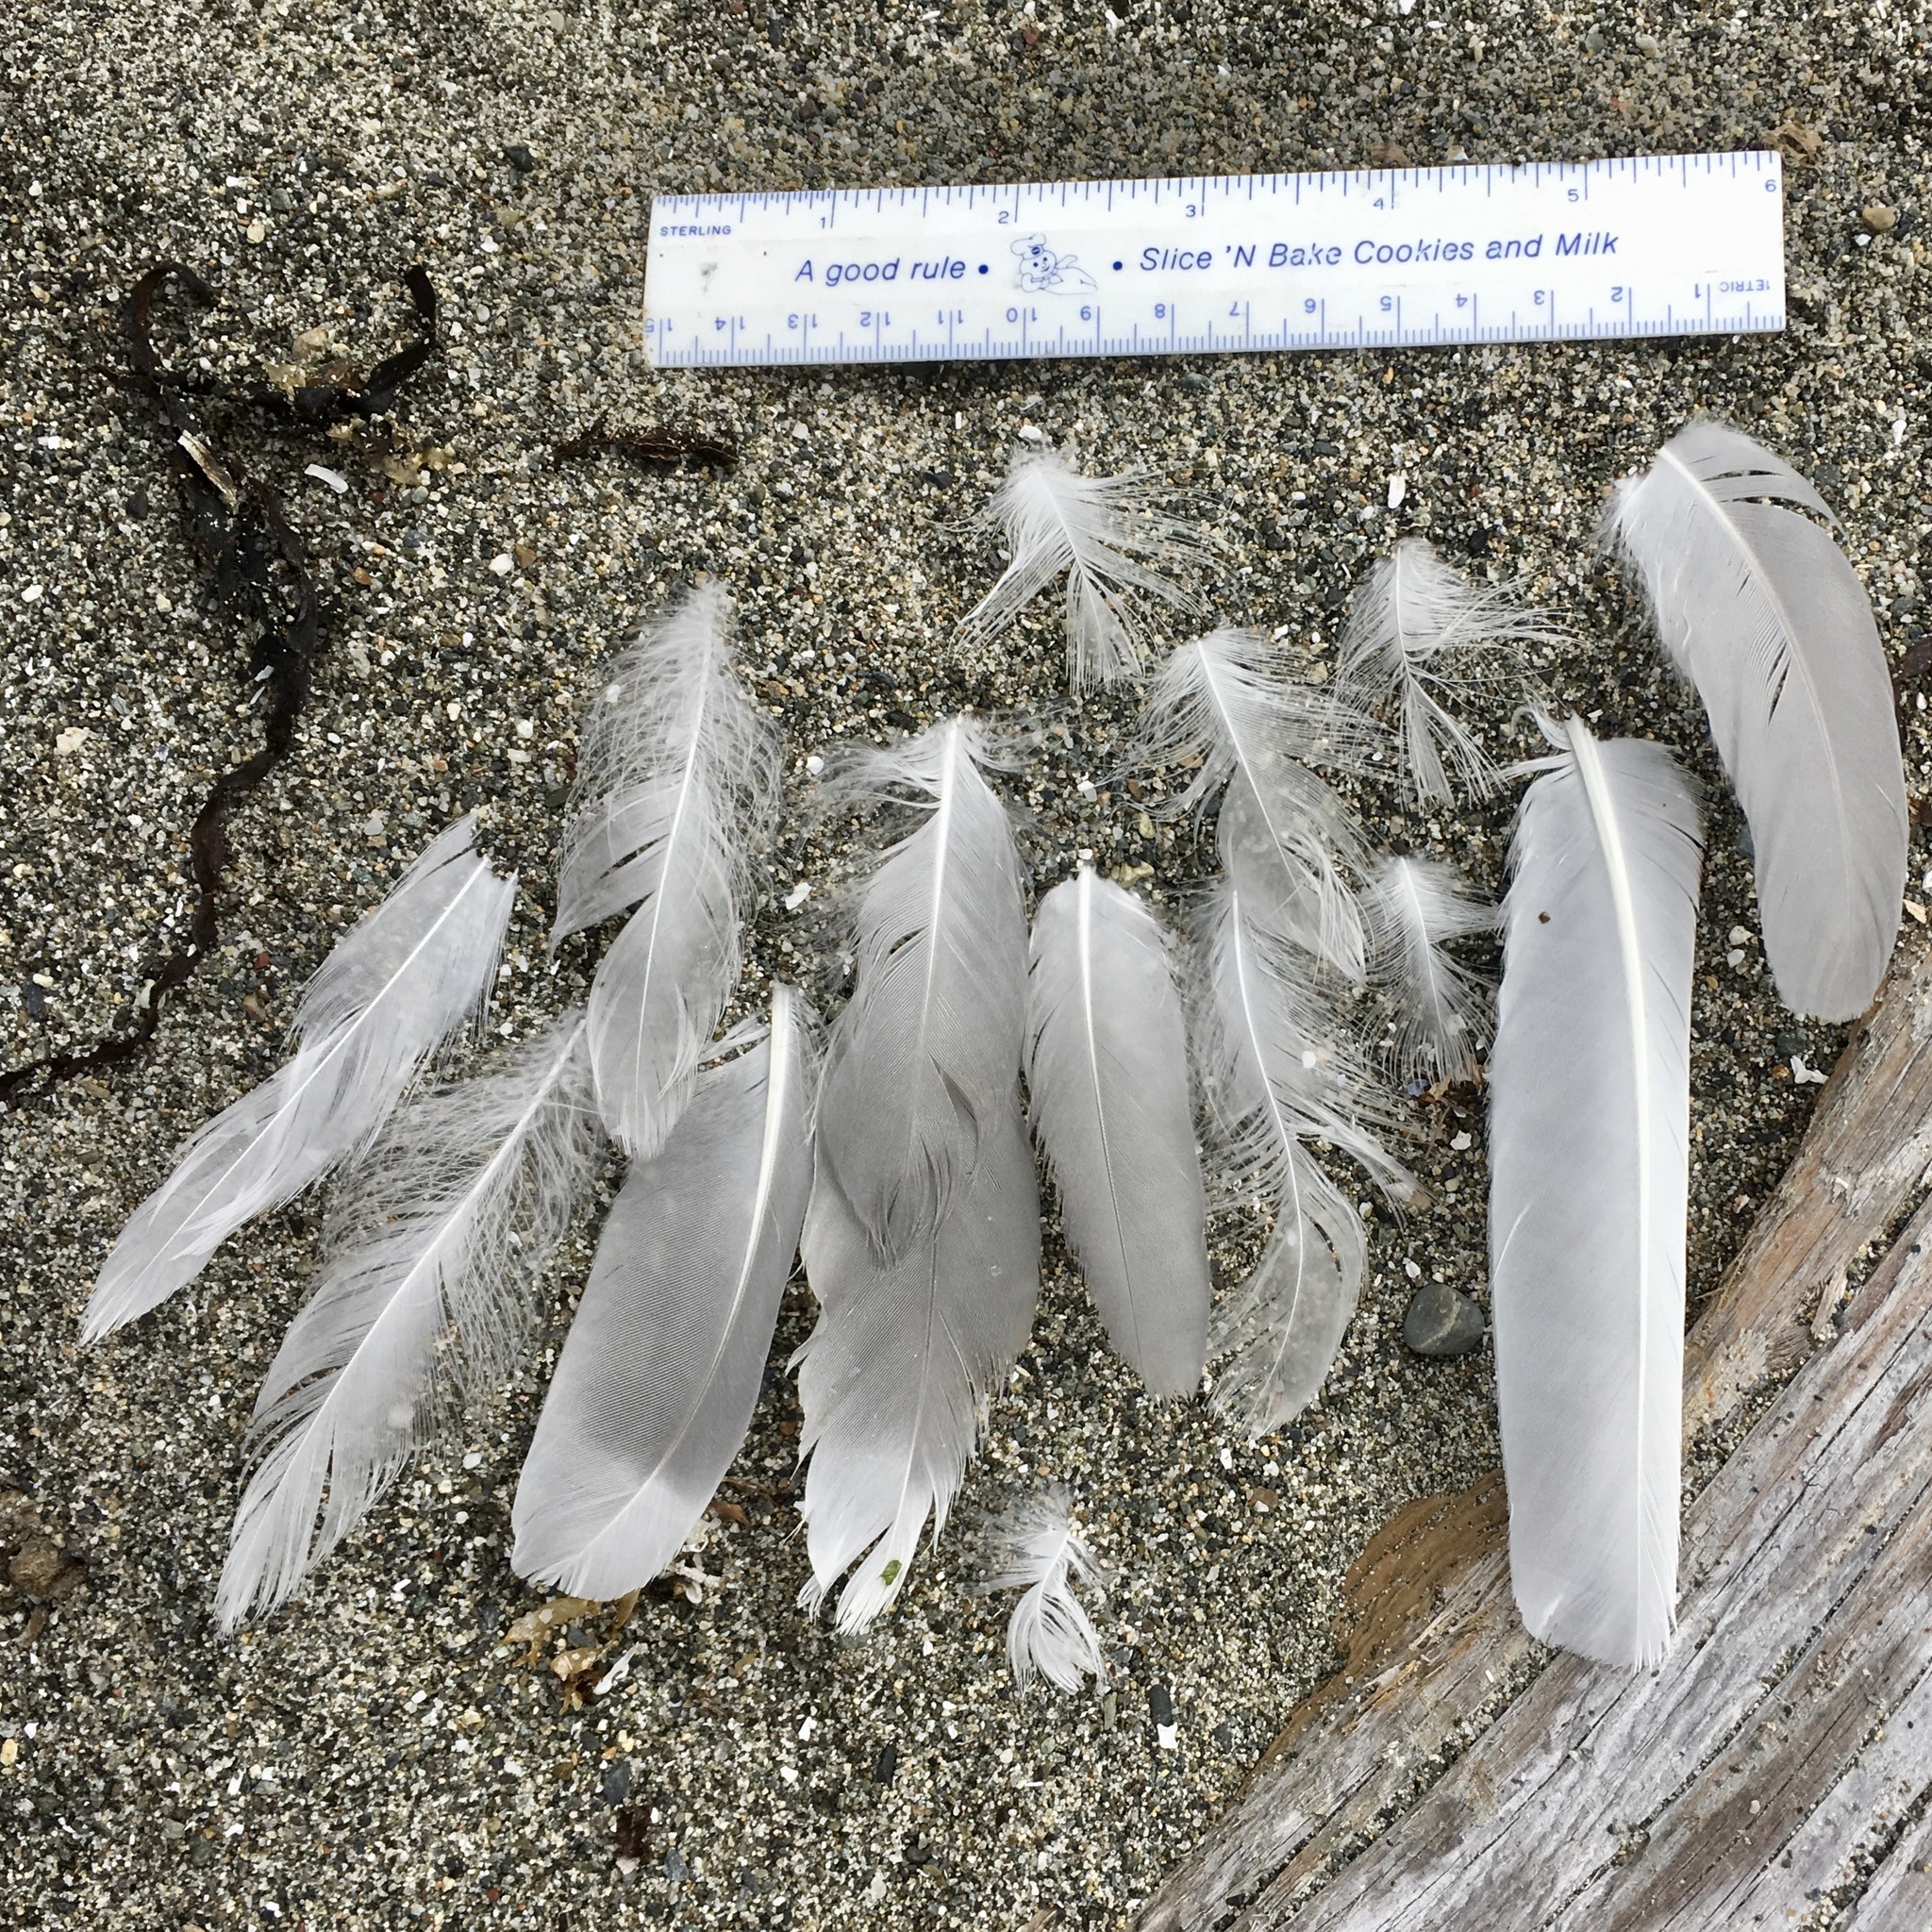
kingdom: Animalia
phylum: Chordata
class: Aves
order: Charadriiformes
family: Laridae
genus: Larus
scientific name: Larus glaucescens
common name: Glaucous-winged gull
